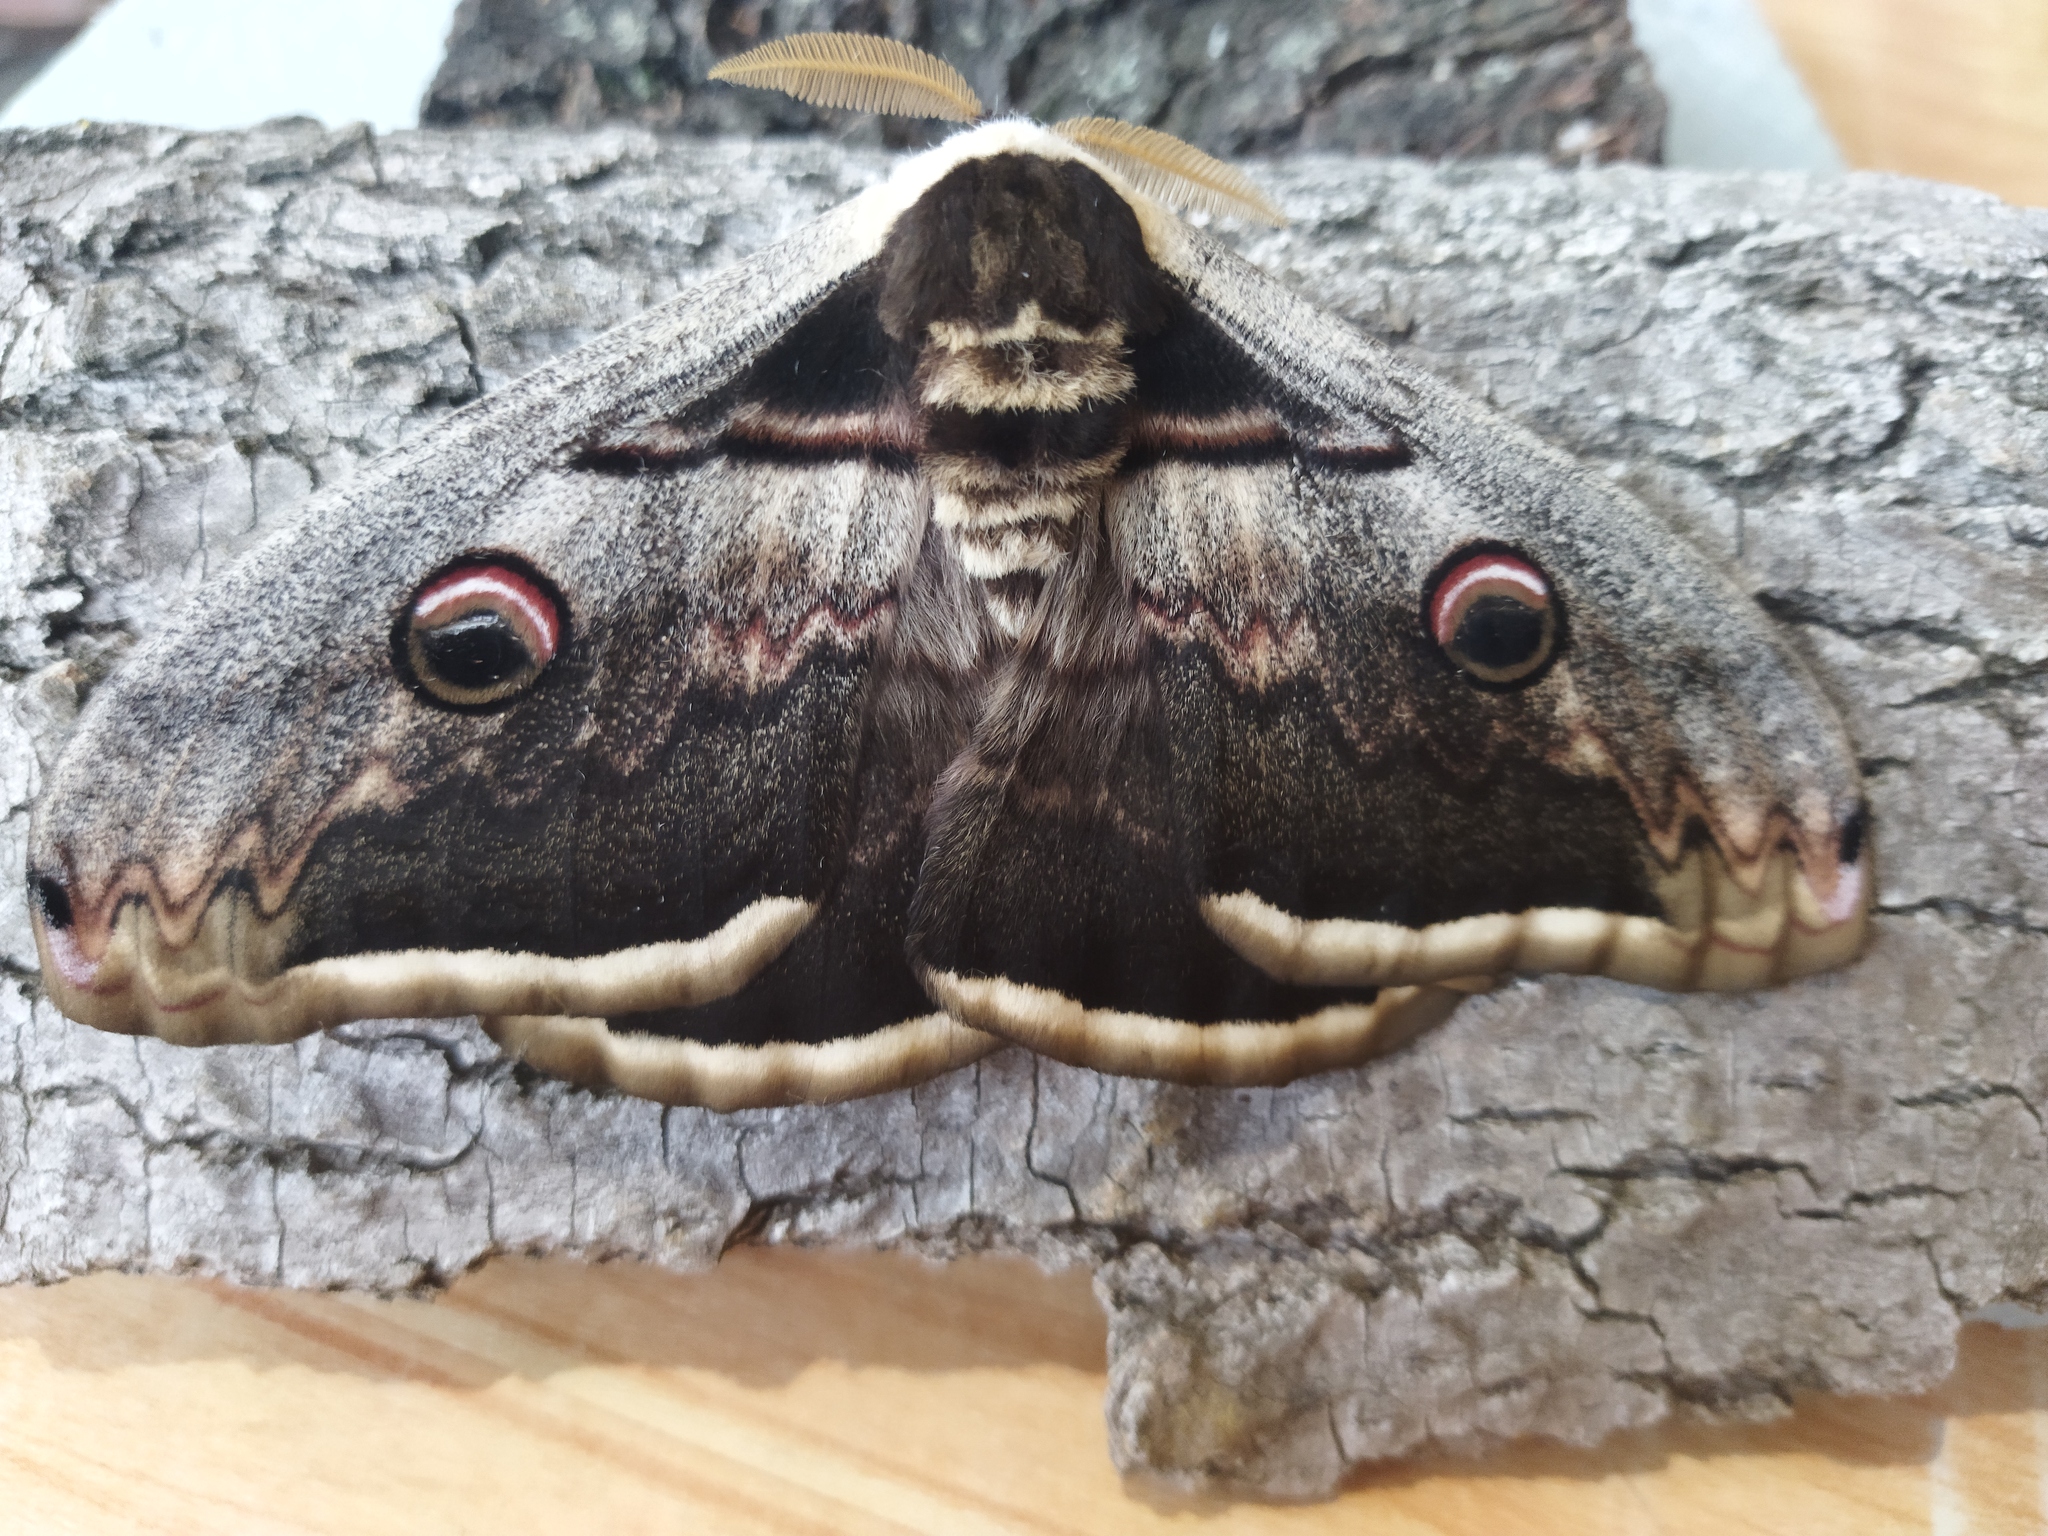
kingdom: Animalia
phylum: Arthropoda
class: Insecta
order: Lepidoptera
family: Saturniidae
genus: Saturnia
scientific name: Saturnia pyri
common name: Great peacock moth
